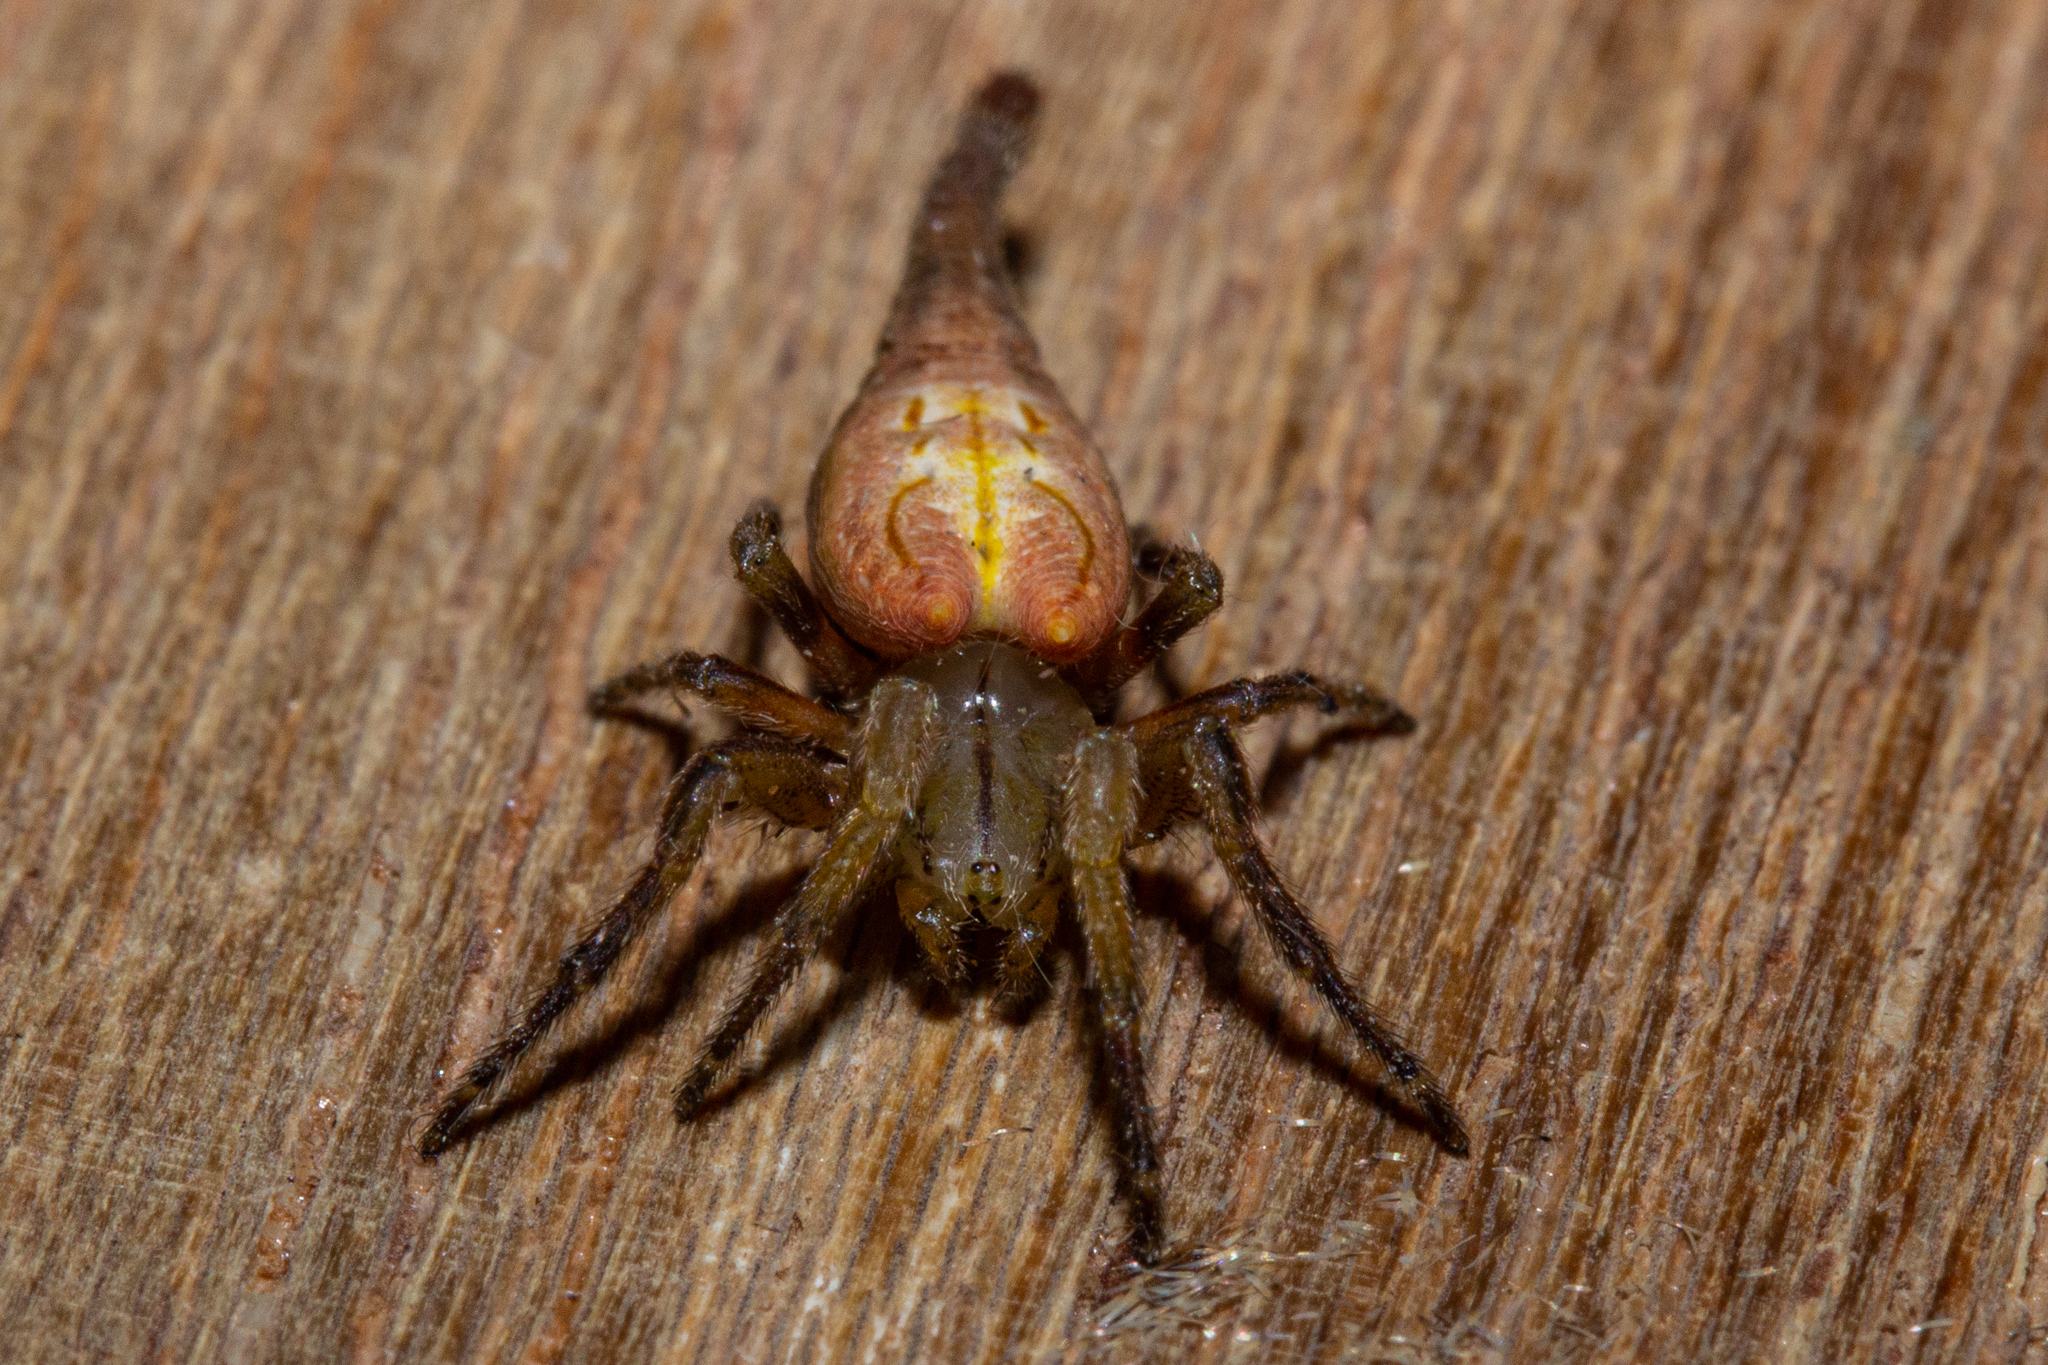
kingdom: Animalia
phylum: Arthropoda
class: Arachnida
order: Araneae
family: Araneidae
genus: Arachnura
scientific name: Arachnura feredayi
